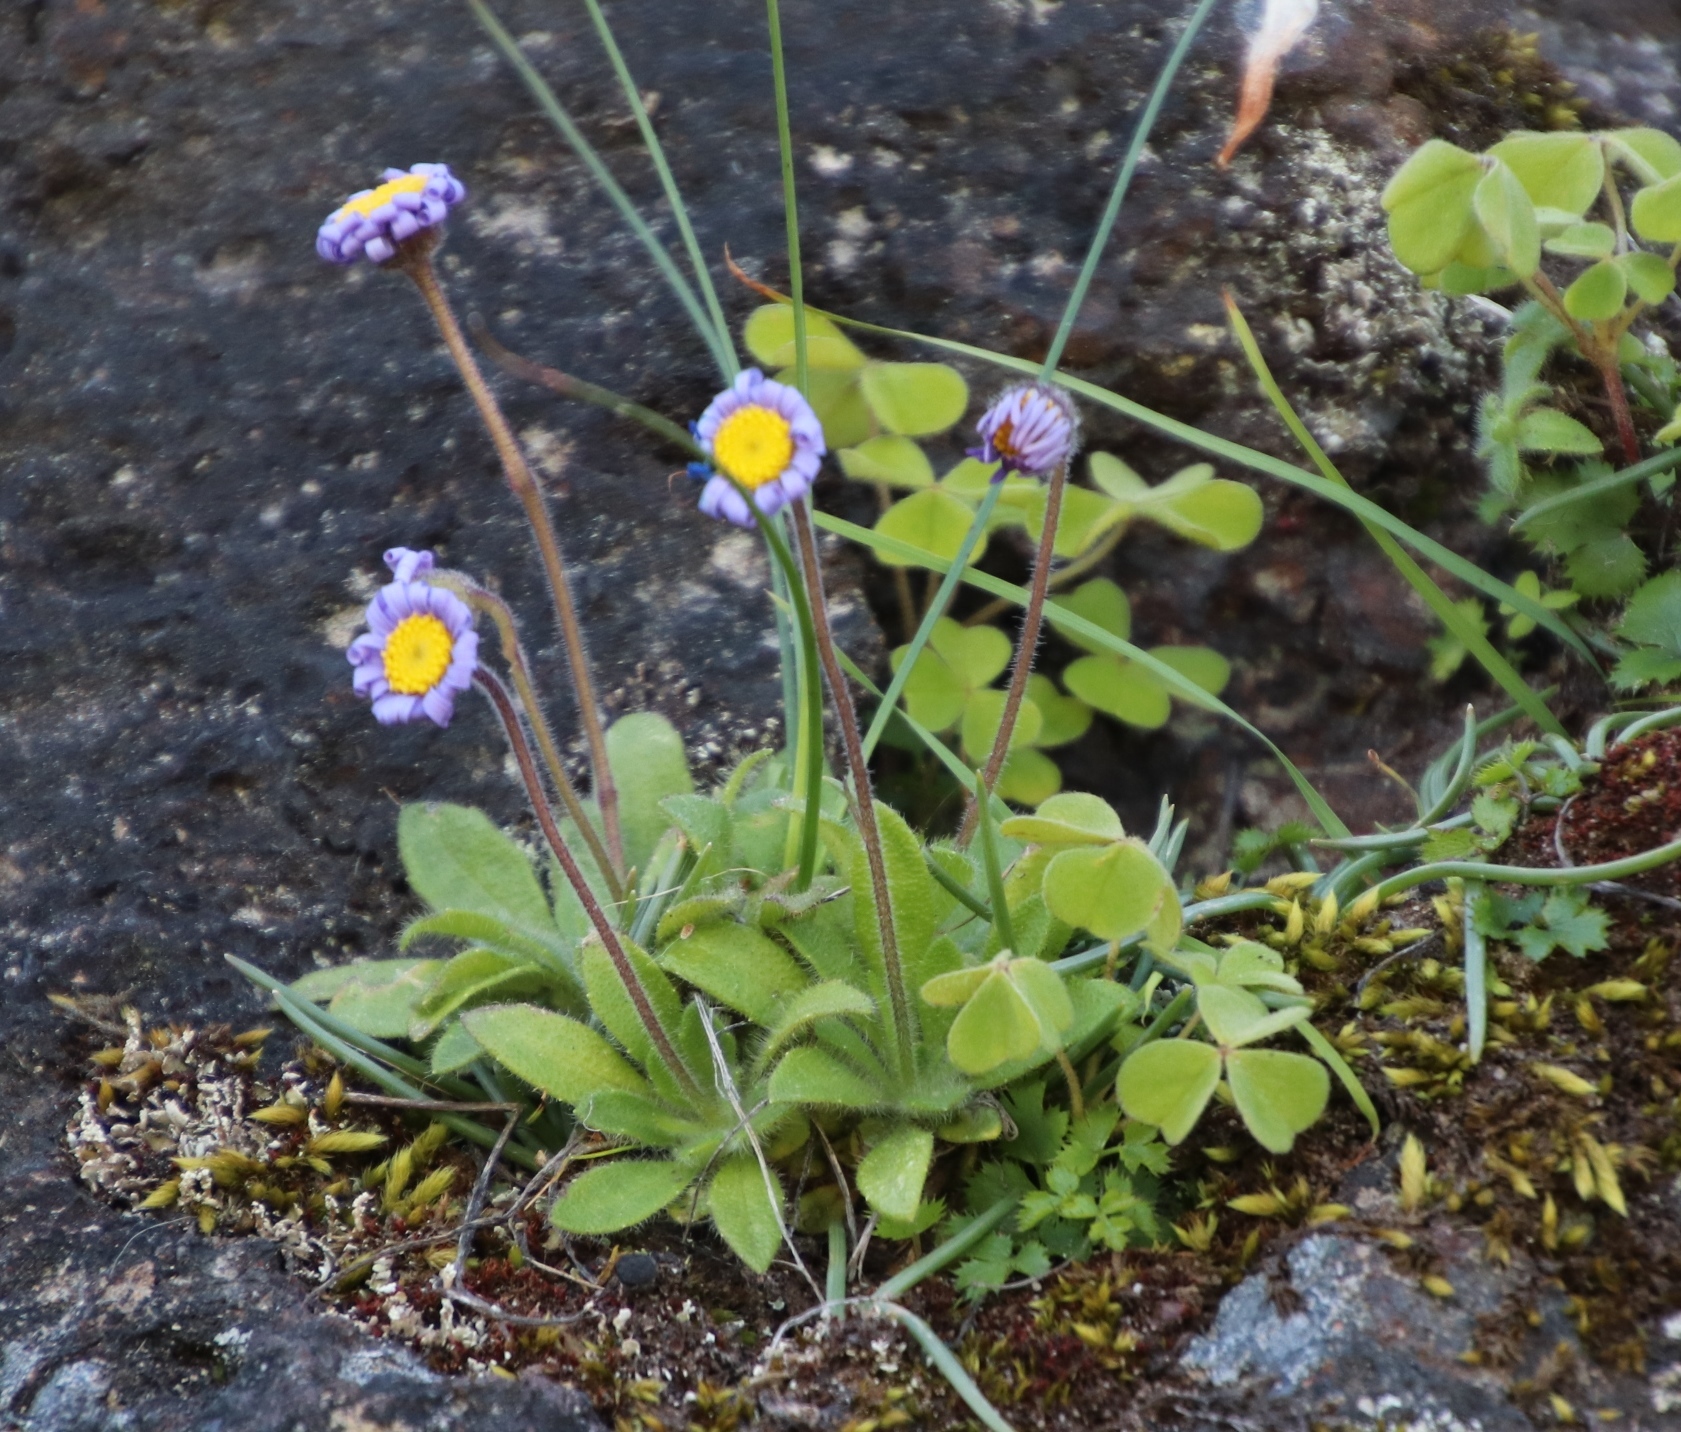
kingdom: Plantae
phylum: Tracheophyta
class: Magnoliopsida
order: Asterales
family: Asteraceae
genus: Felicia
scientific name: Felicia amoena
